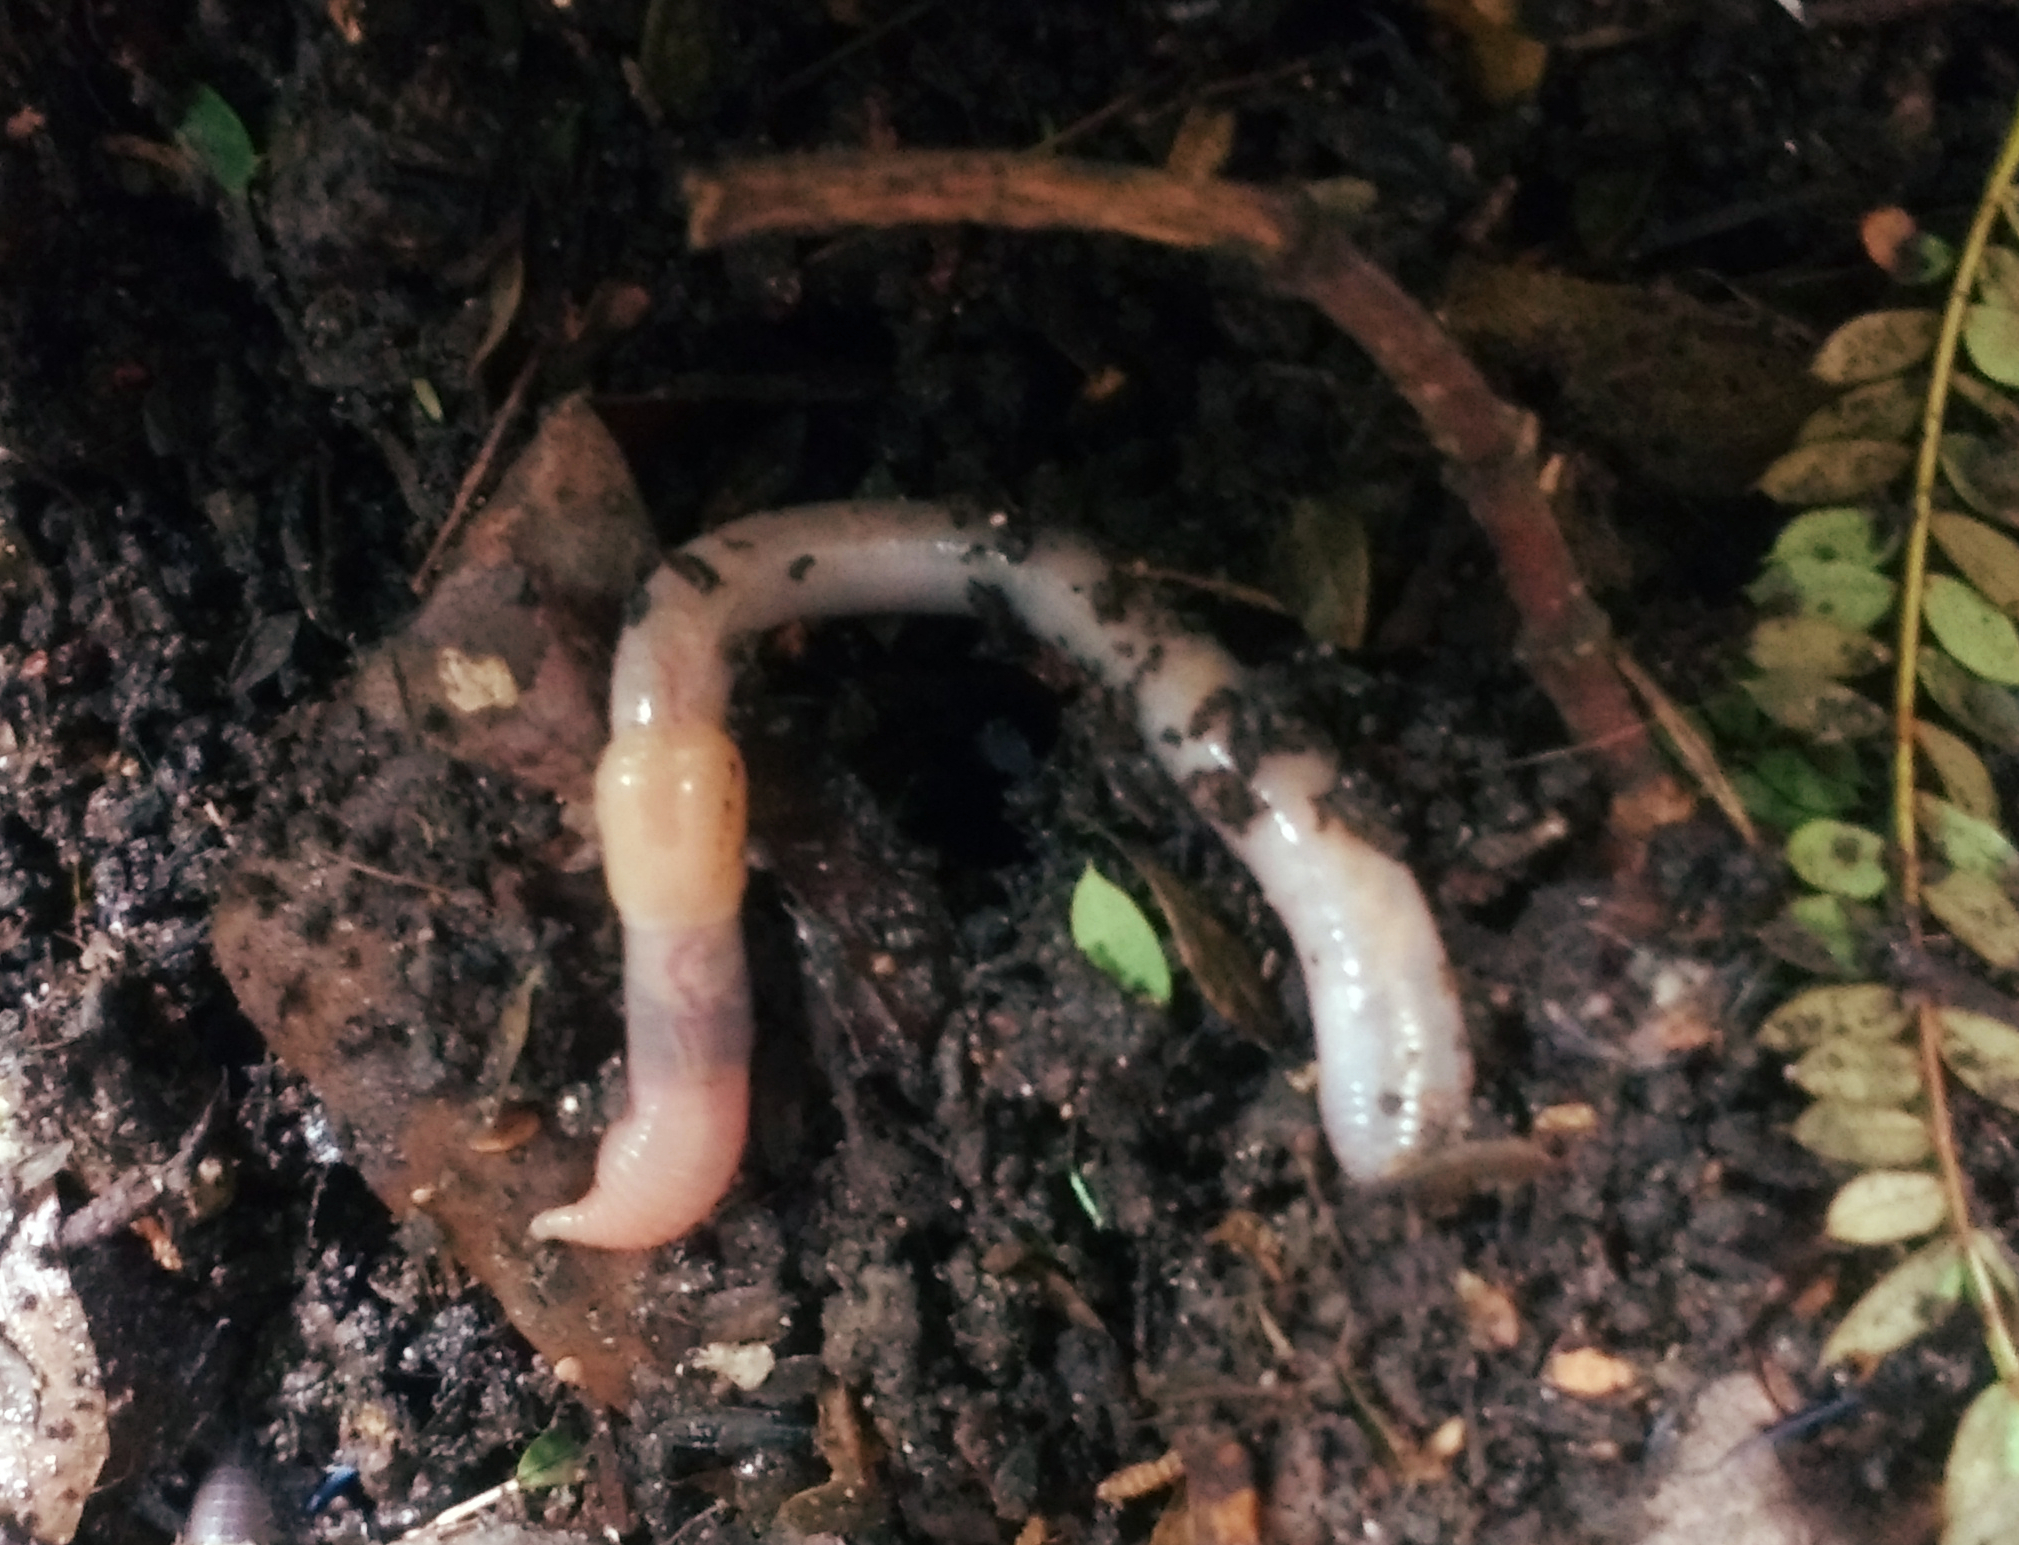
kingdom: Animalia
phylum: Annelida
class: Clitellata
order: Crassiclitellata
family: Lumbricidae
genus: Lumbricus
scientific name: Lumbricus terrestris
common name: Common earthworm
